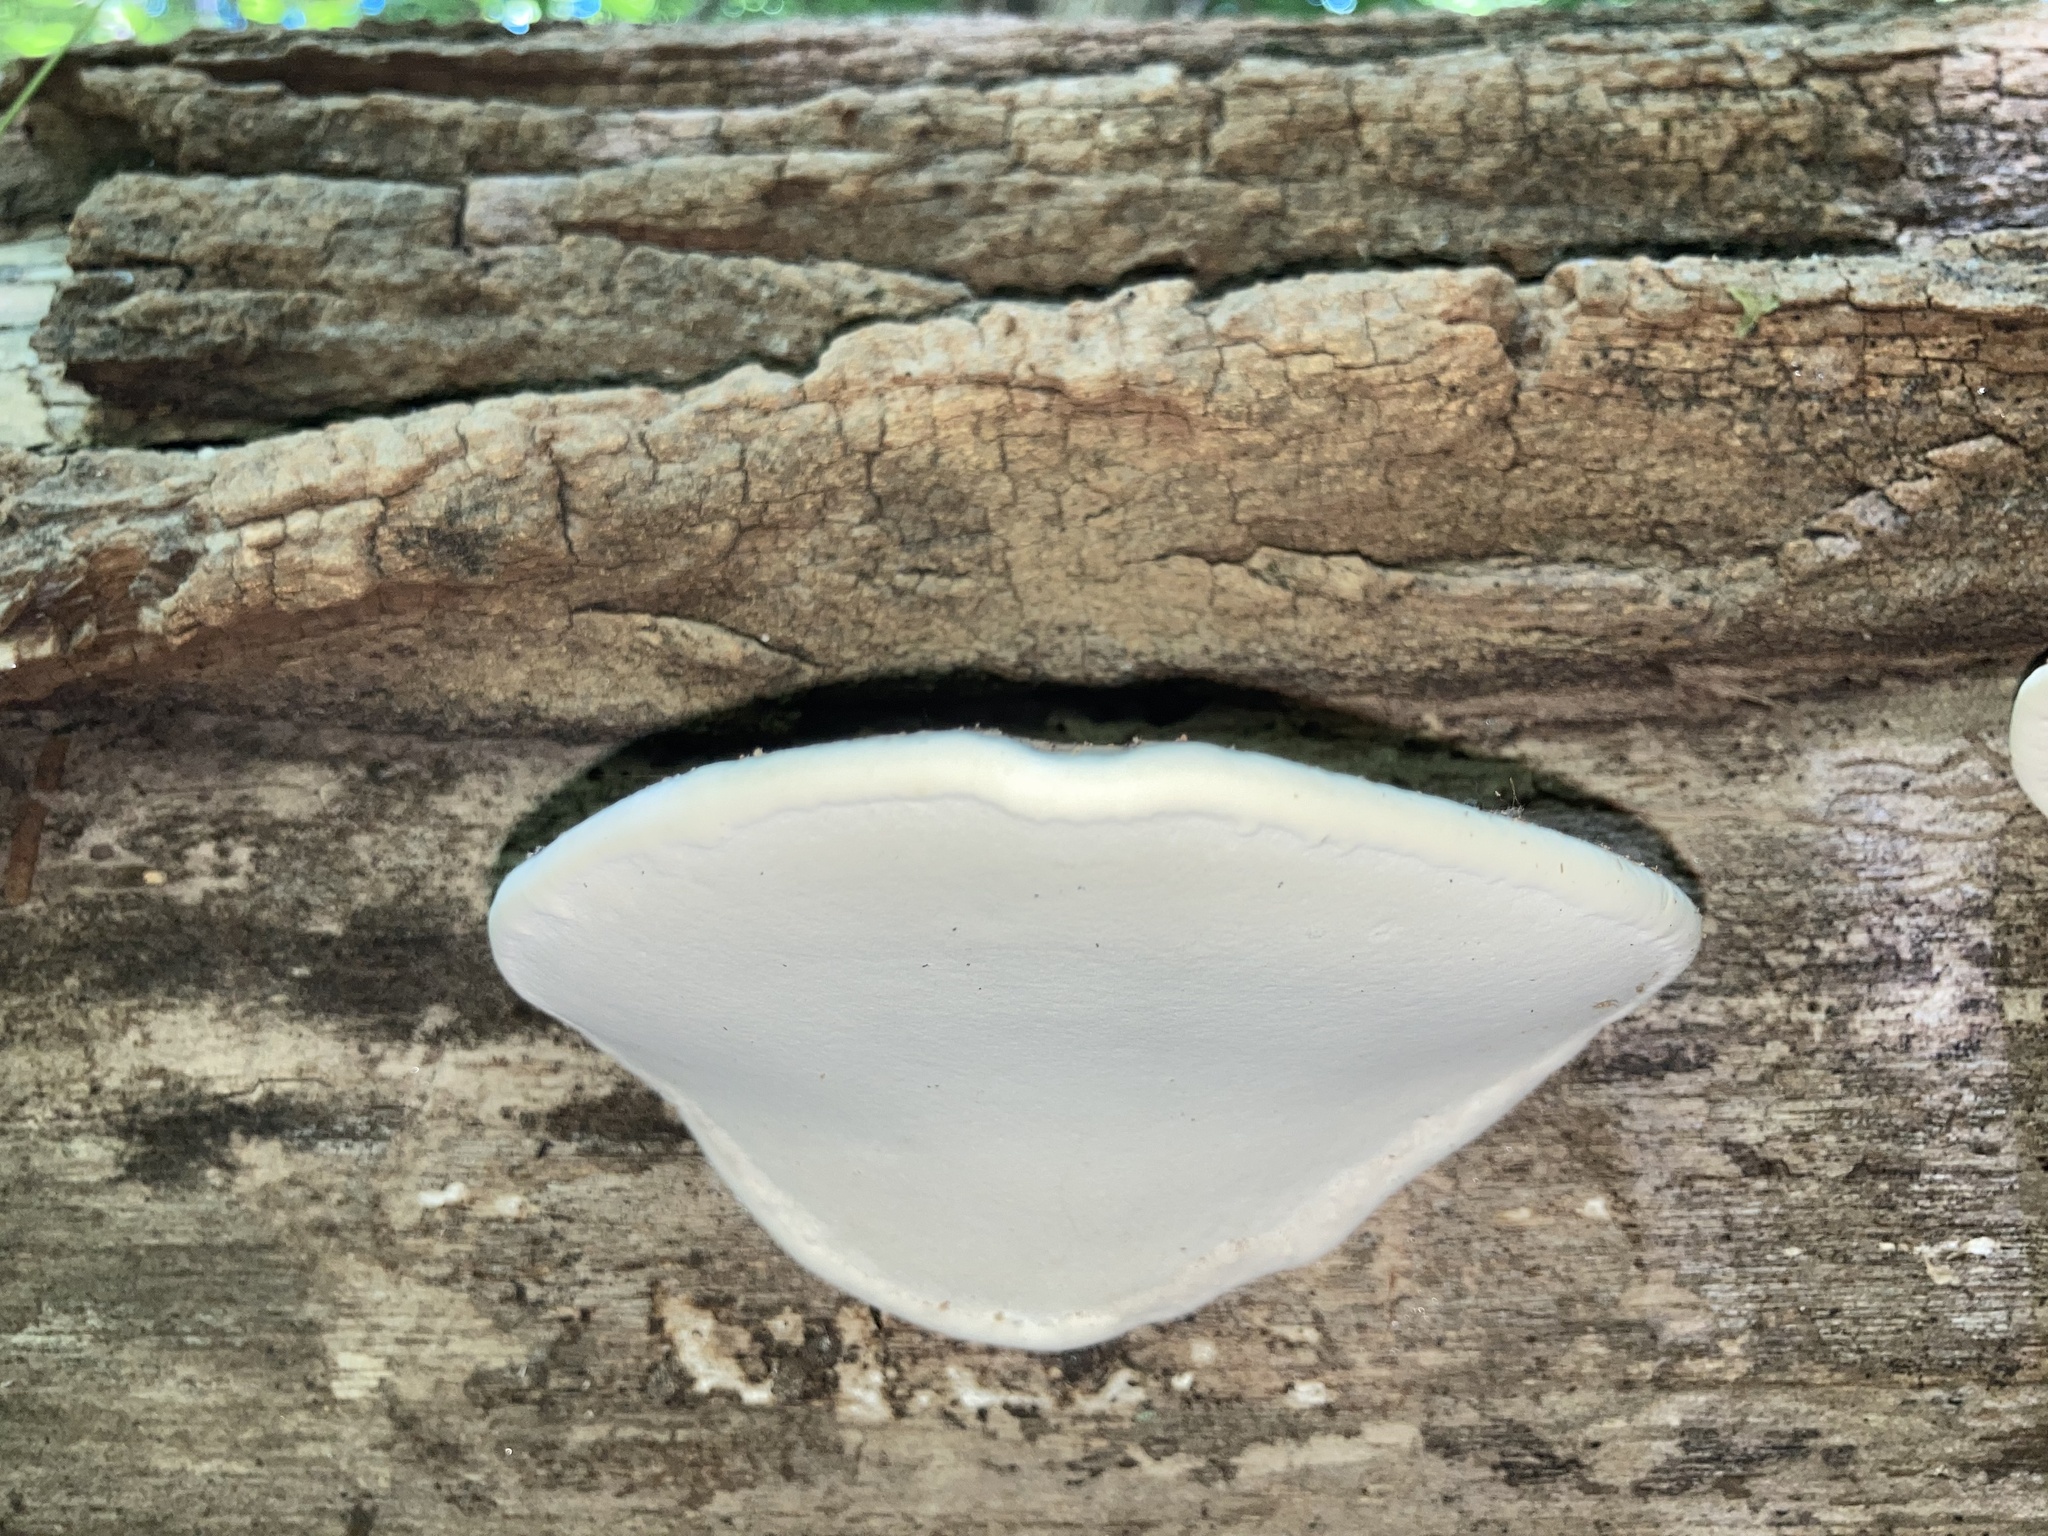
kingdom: Fungi
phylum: Basidiomycota
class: Agaricomycetes
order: Polyporales
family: Polyporaceae
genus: Ganoderma
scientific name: Ganoderma applanatum
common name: Artist's bracket
